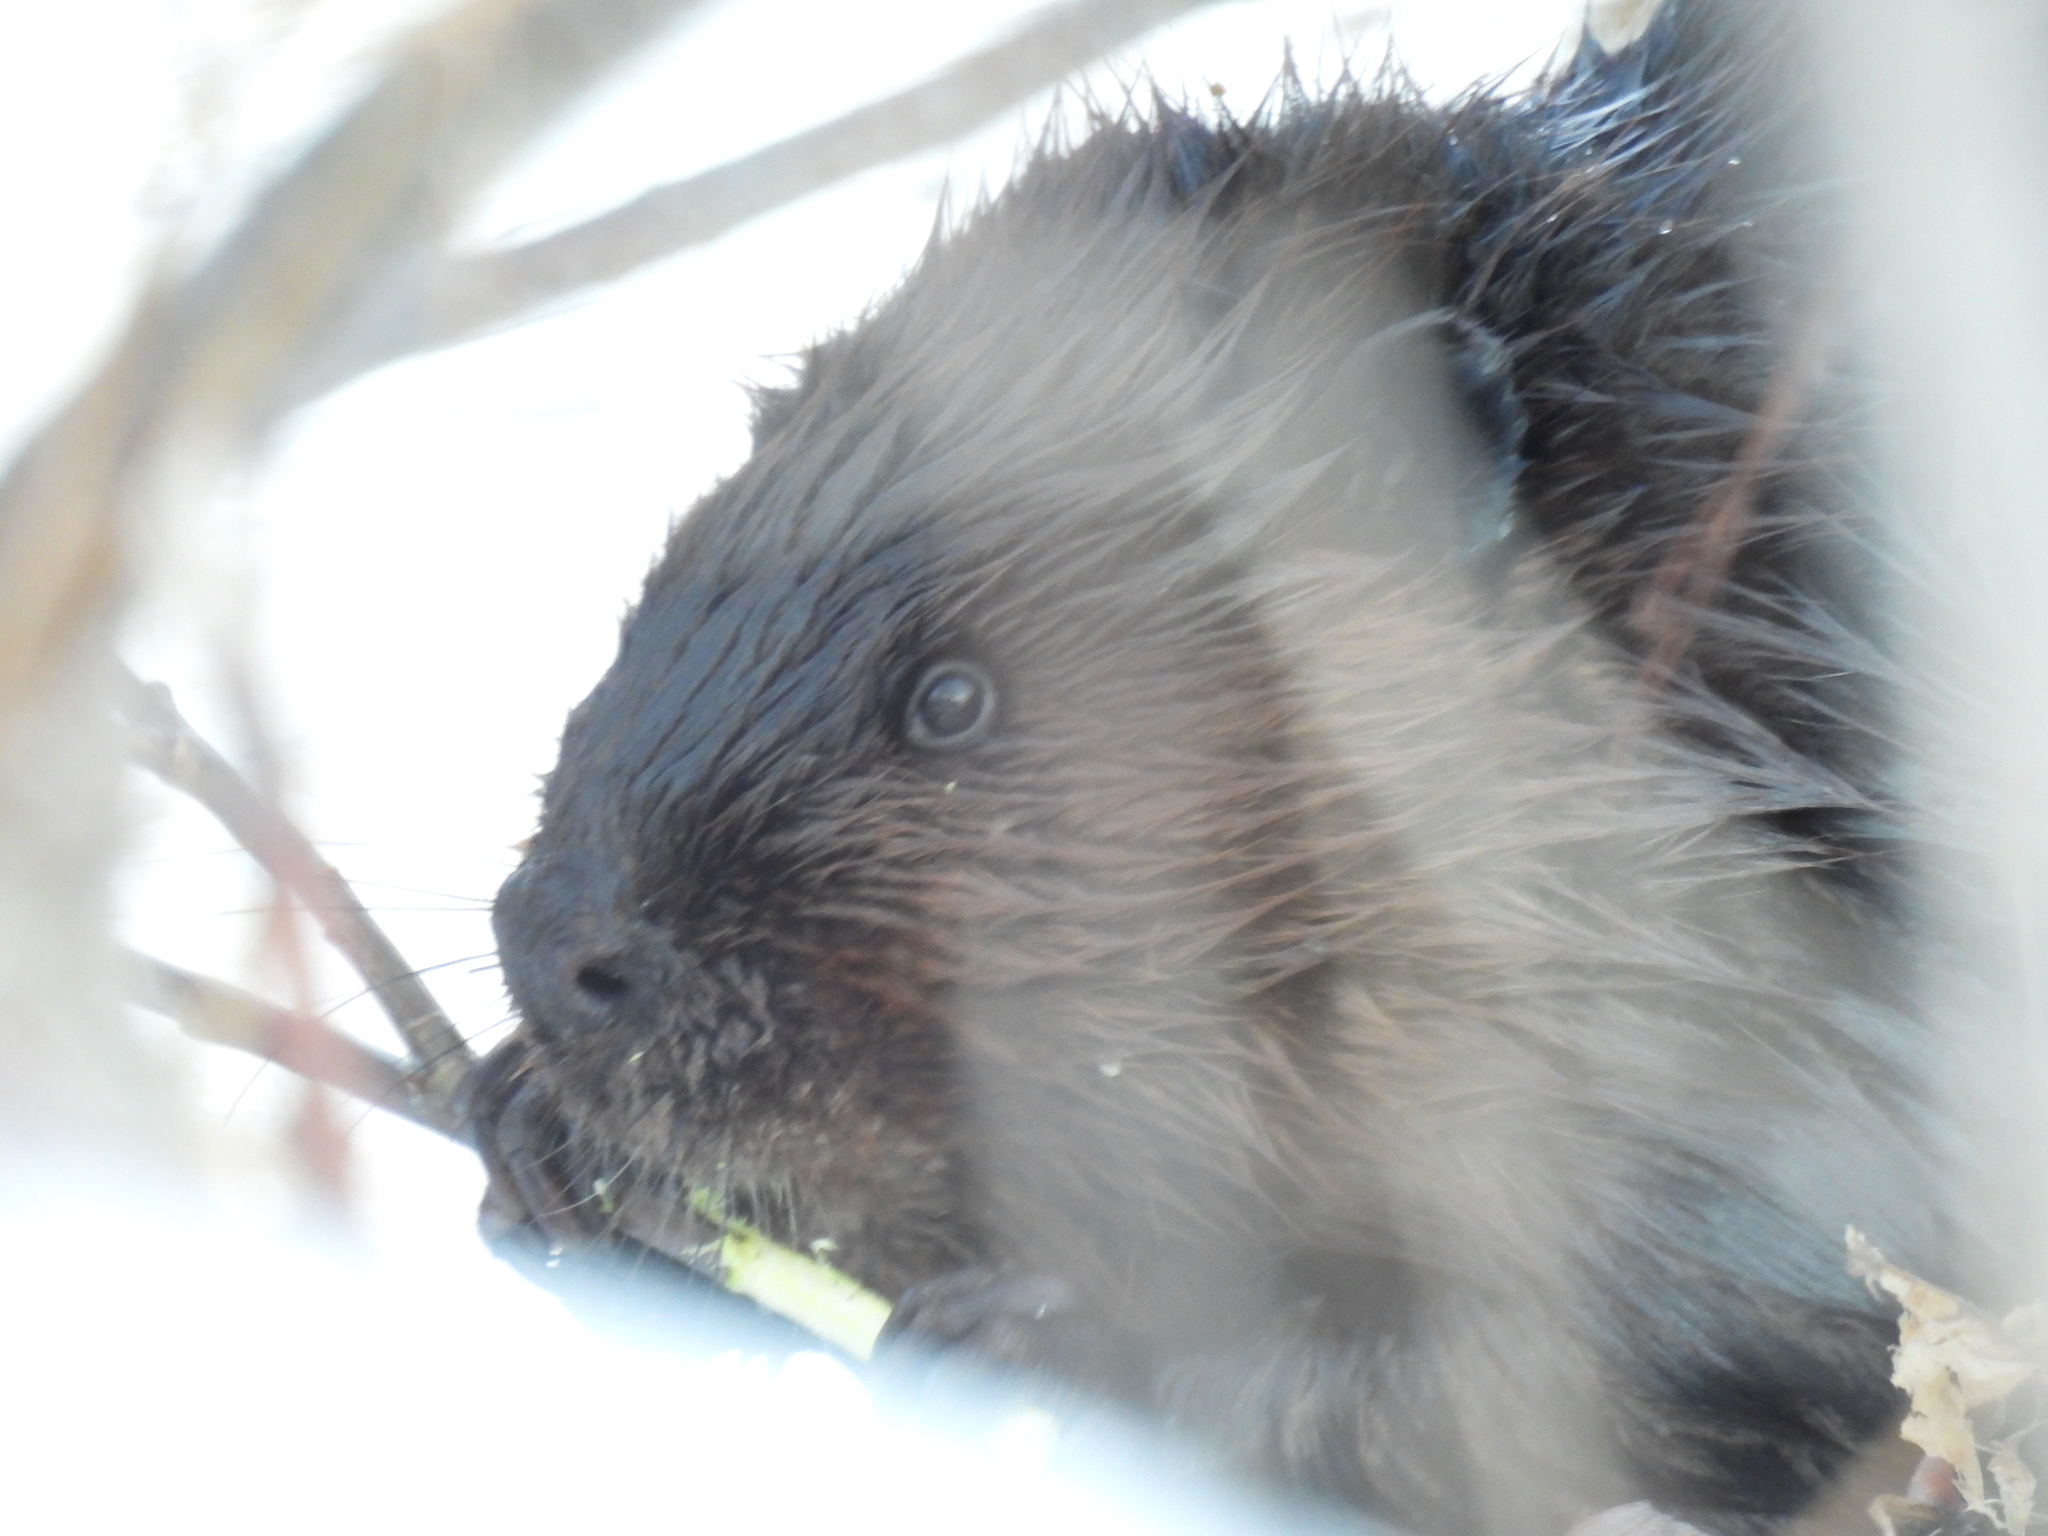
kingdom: Animalia
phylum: Chordata
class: Mammalia
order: Rodentia
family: Castoridae
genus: Castor
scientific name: Castor canadensis
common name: American beaver
